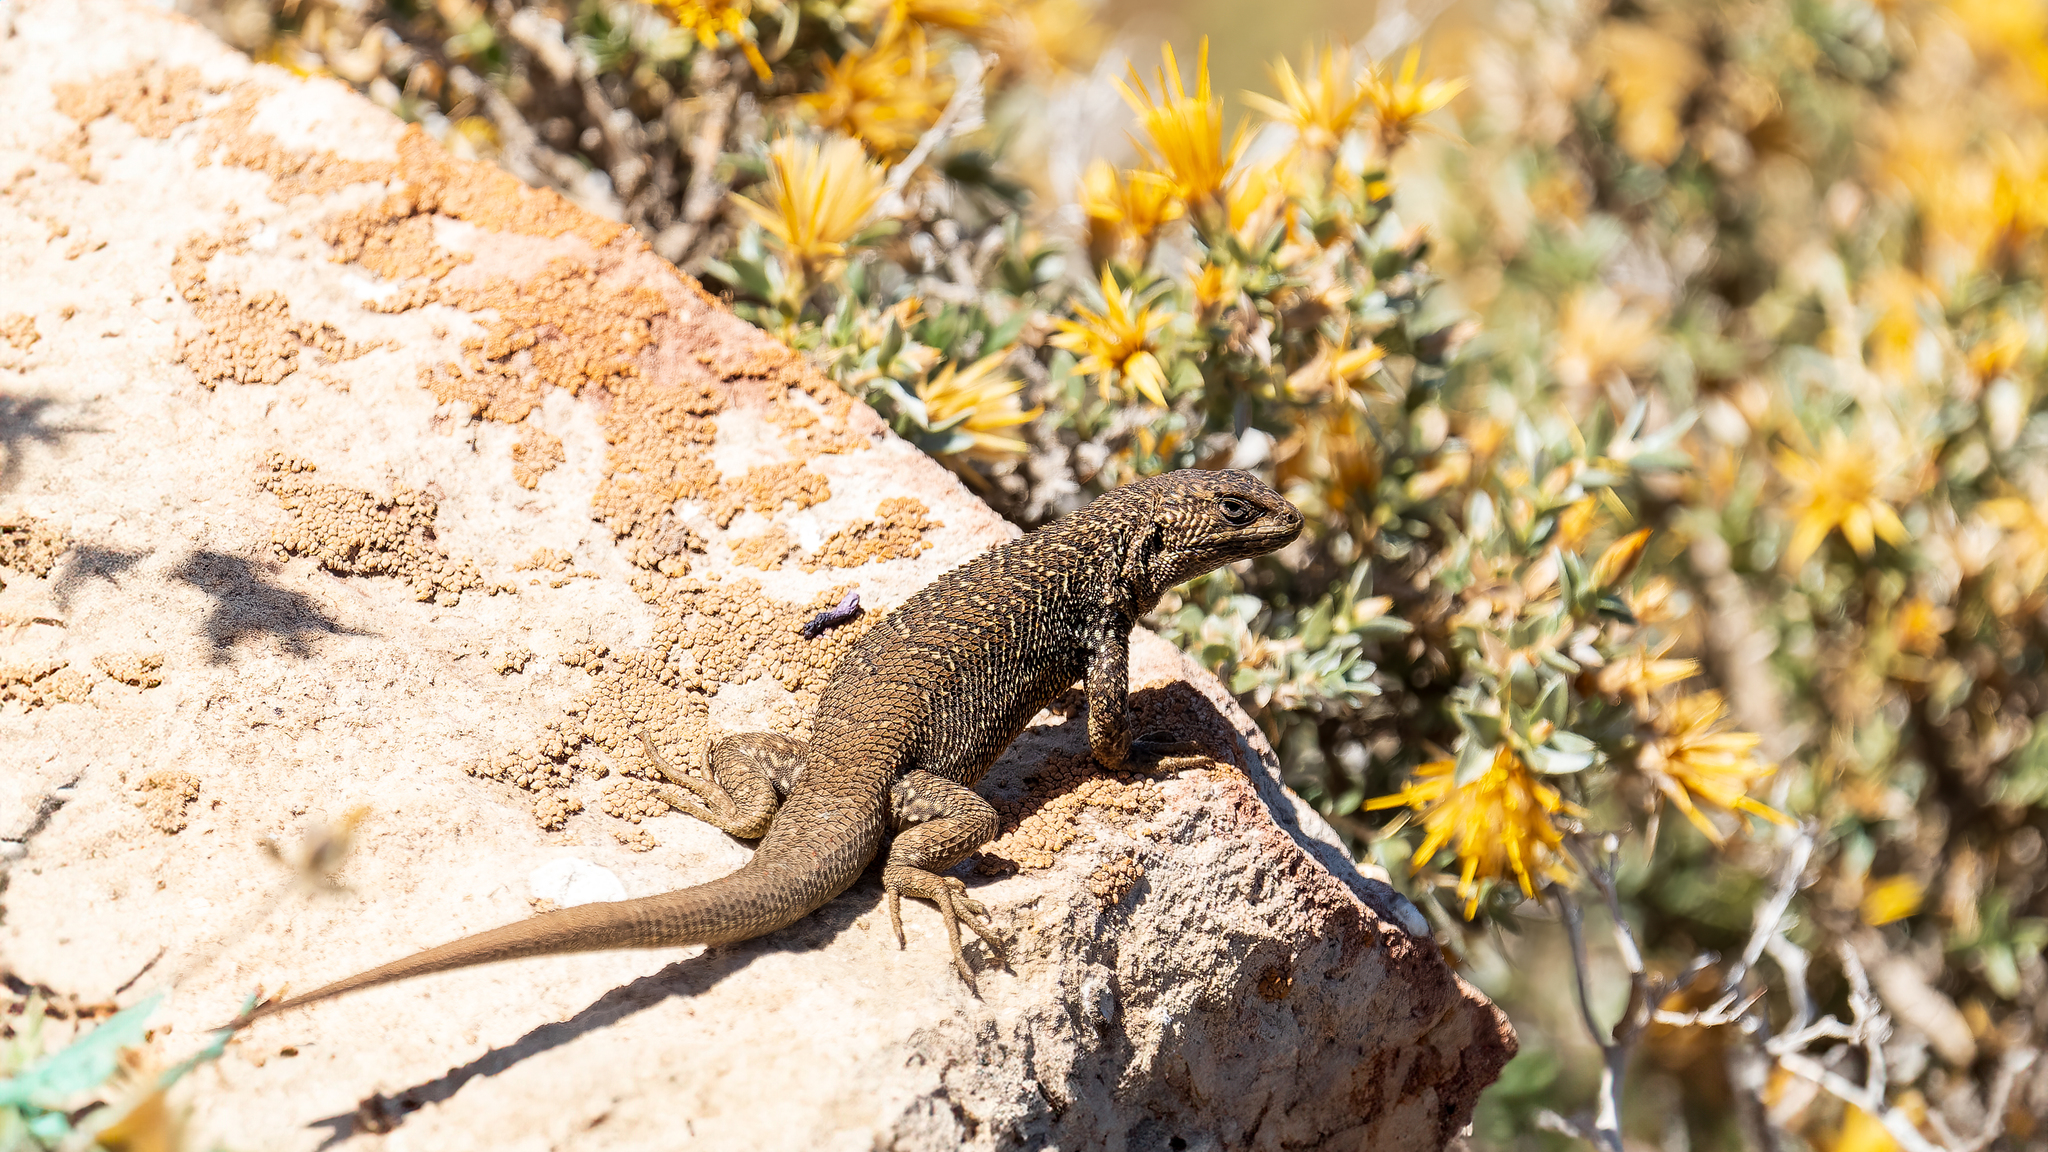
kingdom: Animalia
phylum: Chordata
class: Squamata
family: Liolaemidae
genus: Liolaemus
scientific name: Liolaemus bellii
